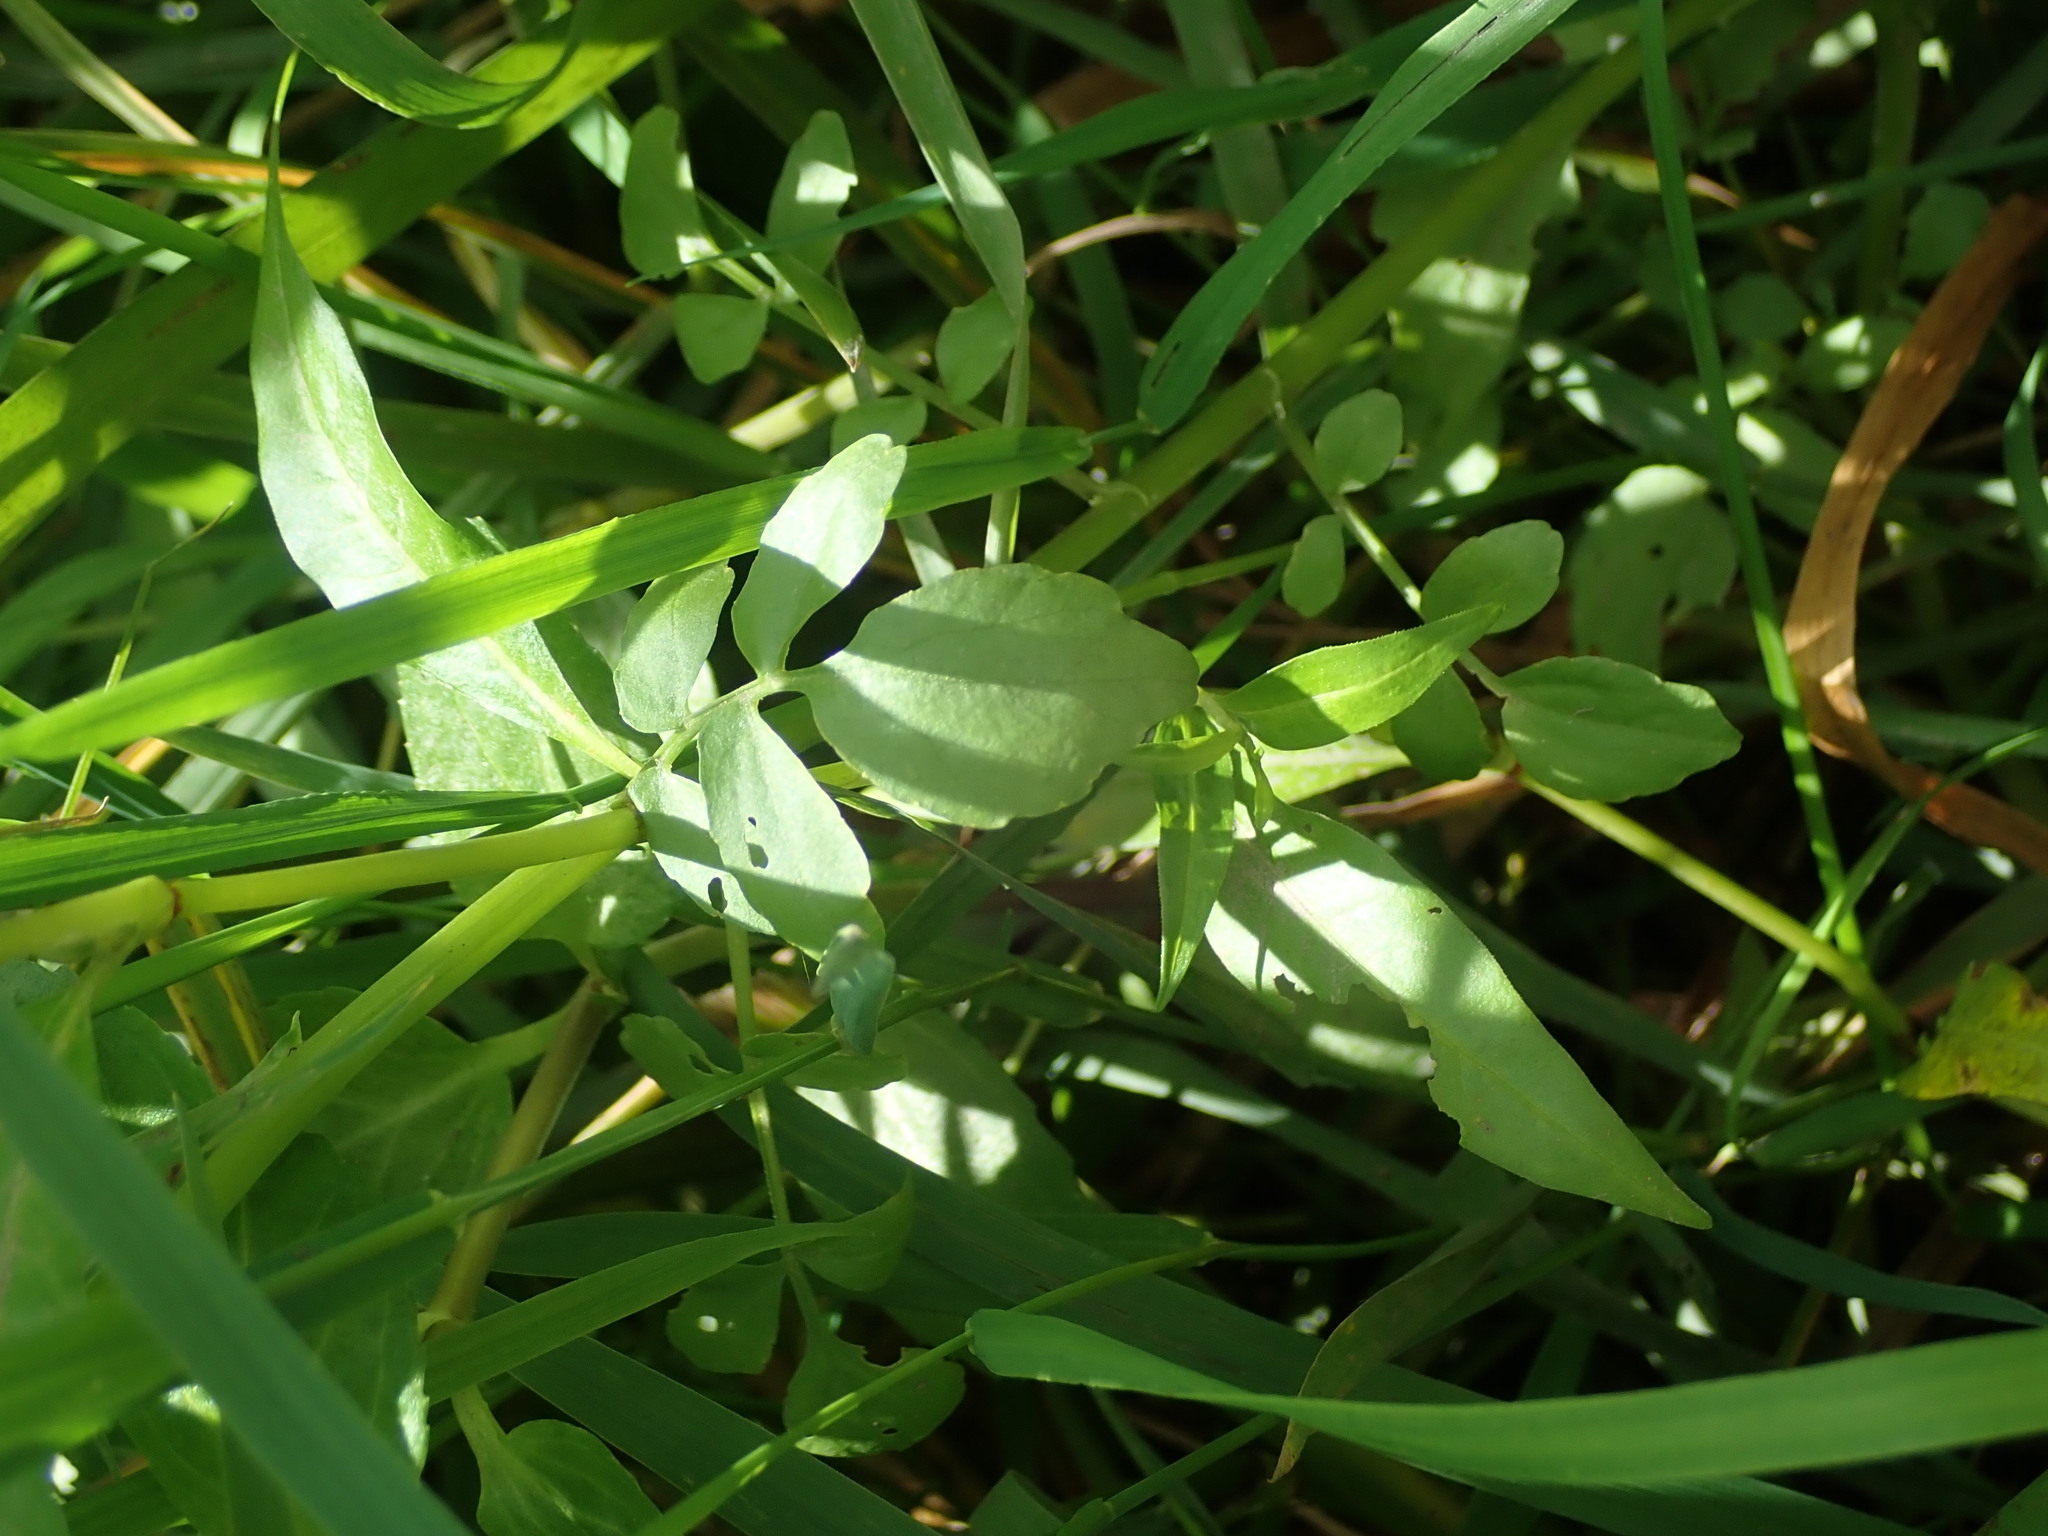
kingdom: Plantae
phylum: Tracheophyta
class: Magnoliopsida
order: Brassicales
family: Brassicaceae
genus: Nasturtium
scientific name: Nasturtium officinale
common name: Watercress
